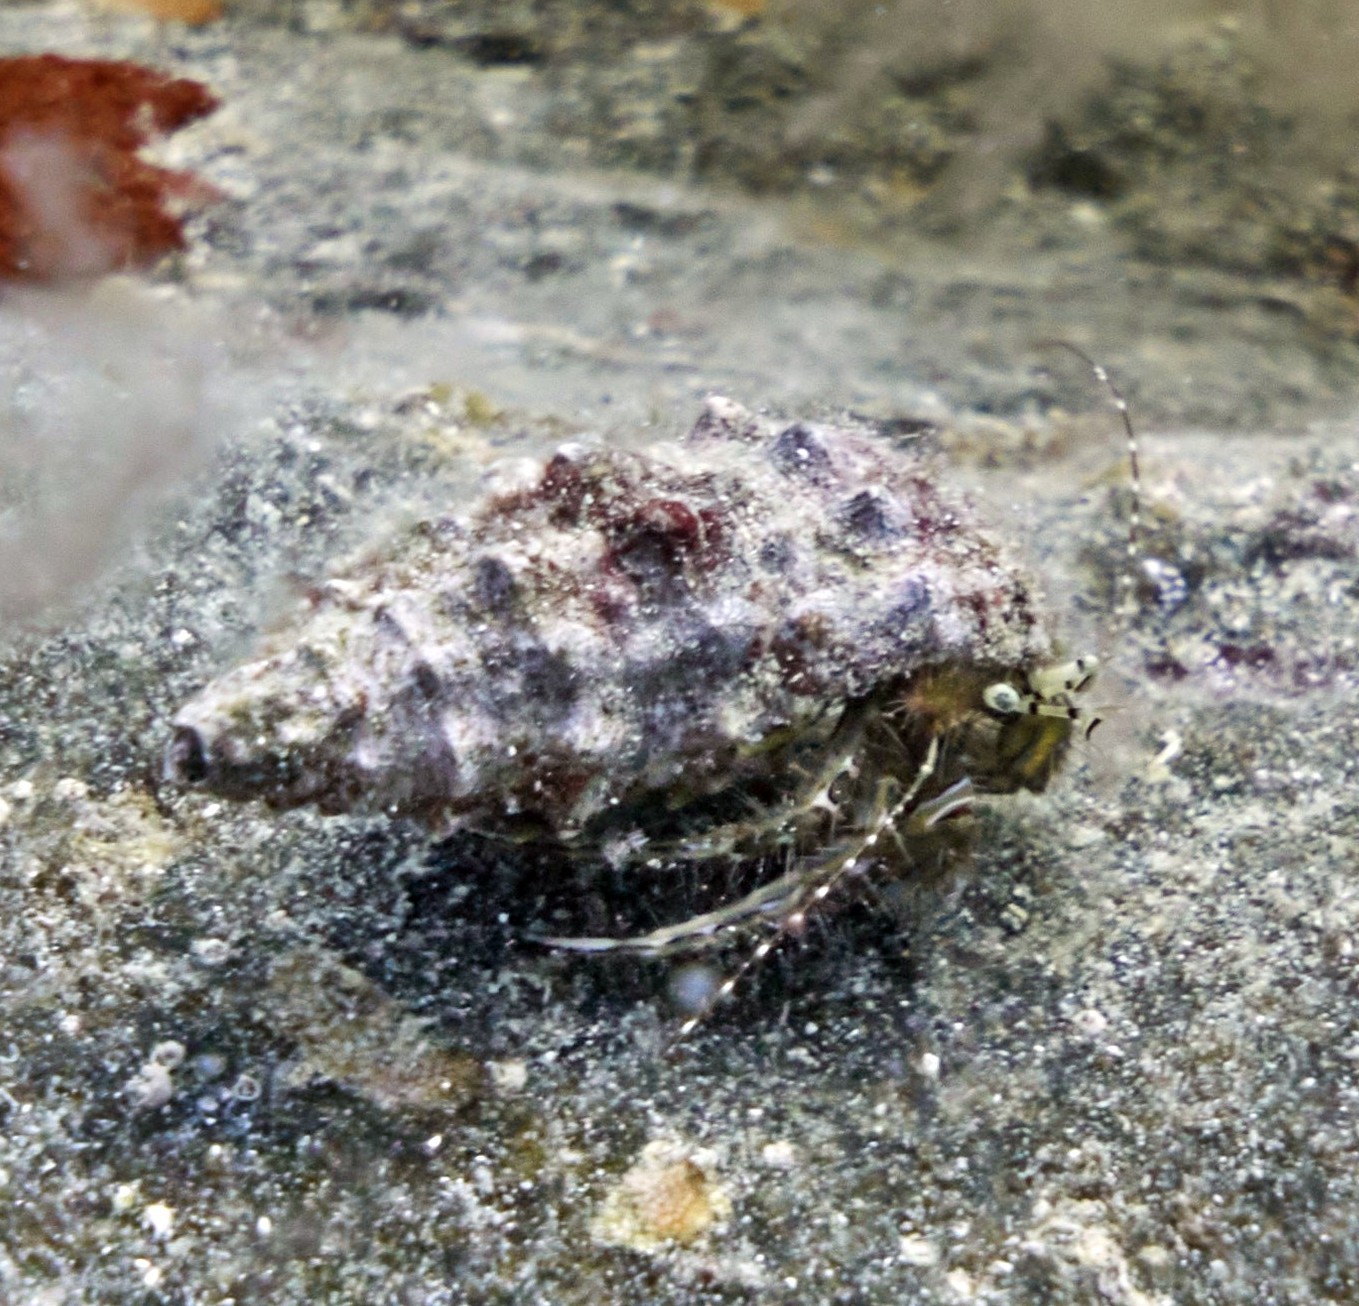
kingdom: Animalia
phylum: Arthropoda
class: Malacostraca
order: Decapoda
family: Paguridae
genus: Pagurus
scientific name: Pagurus anachoretus
